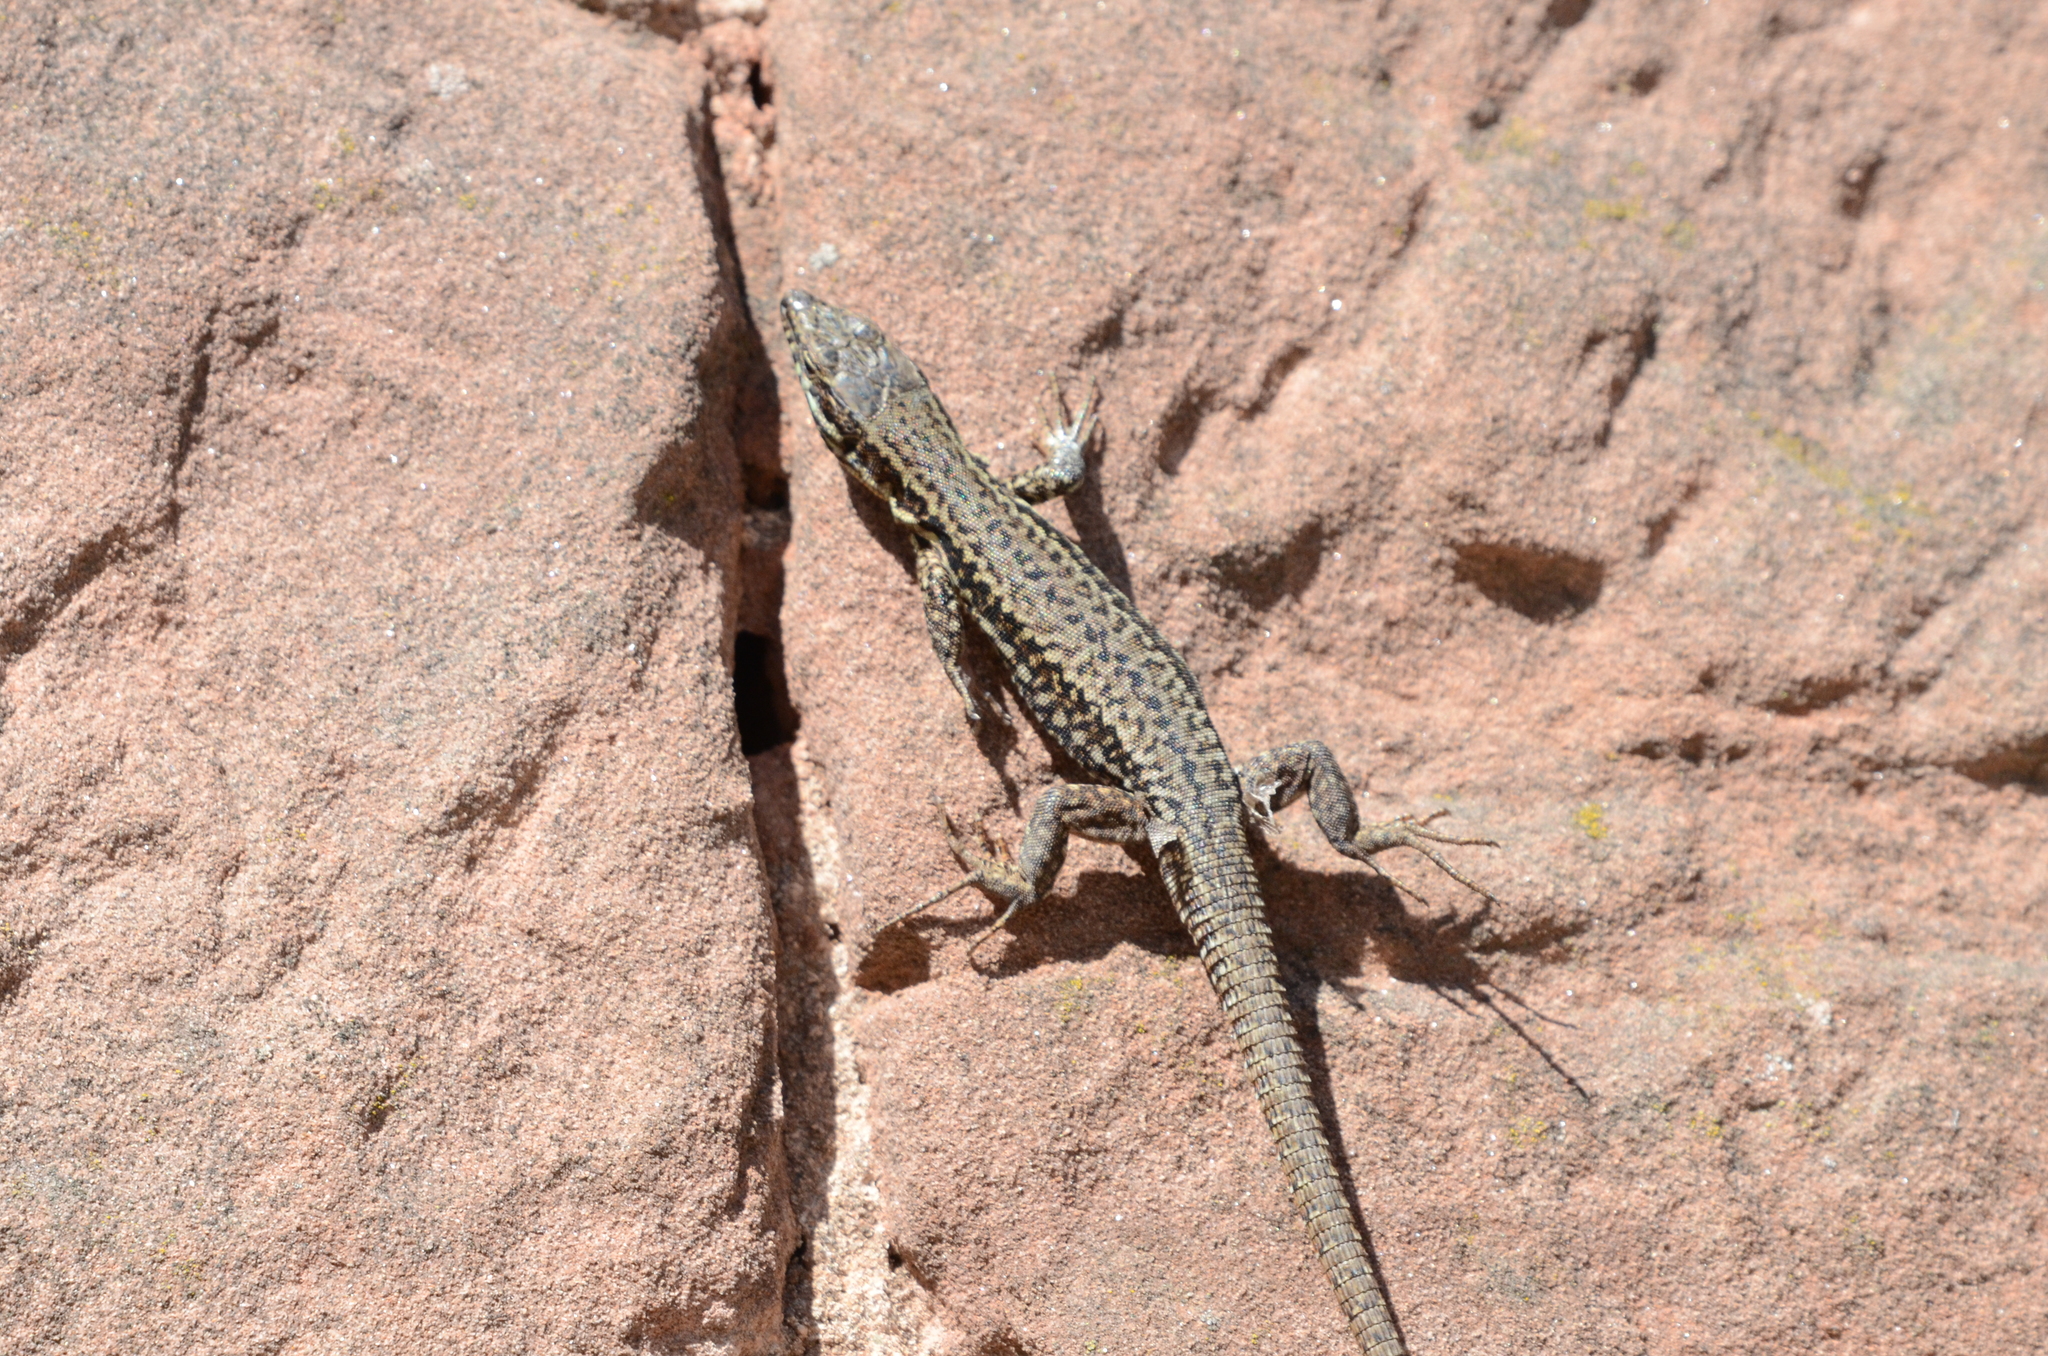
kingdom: Animalia
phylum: Chordata
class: Squamata
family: Lacertidae
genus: Podarcis
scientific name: Podarcis muralis
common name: Common wall lizard
